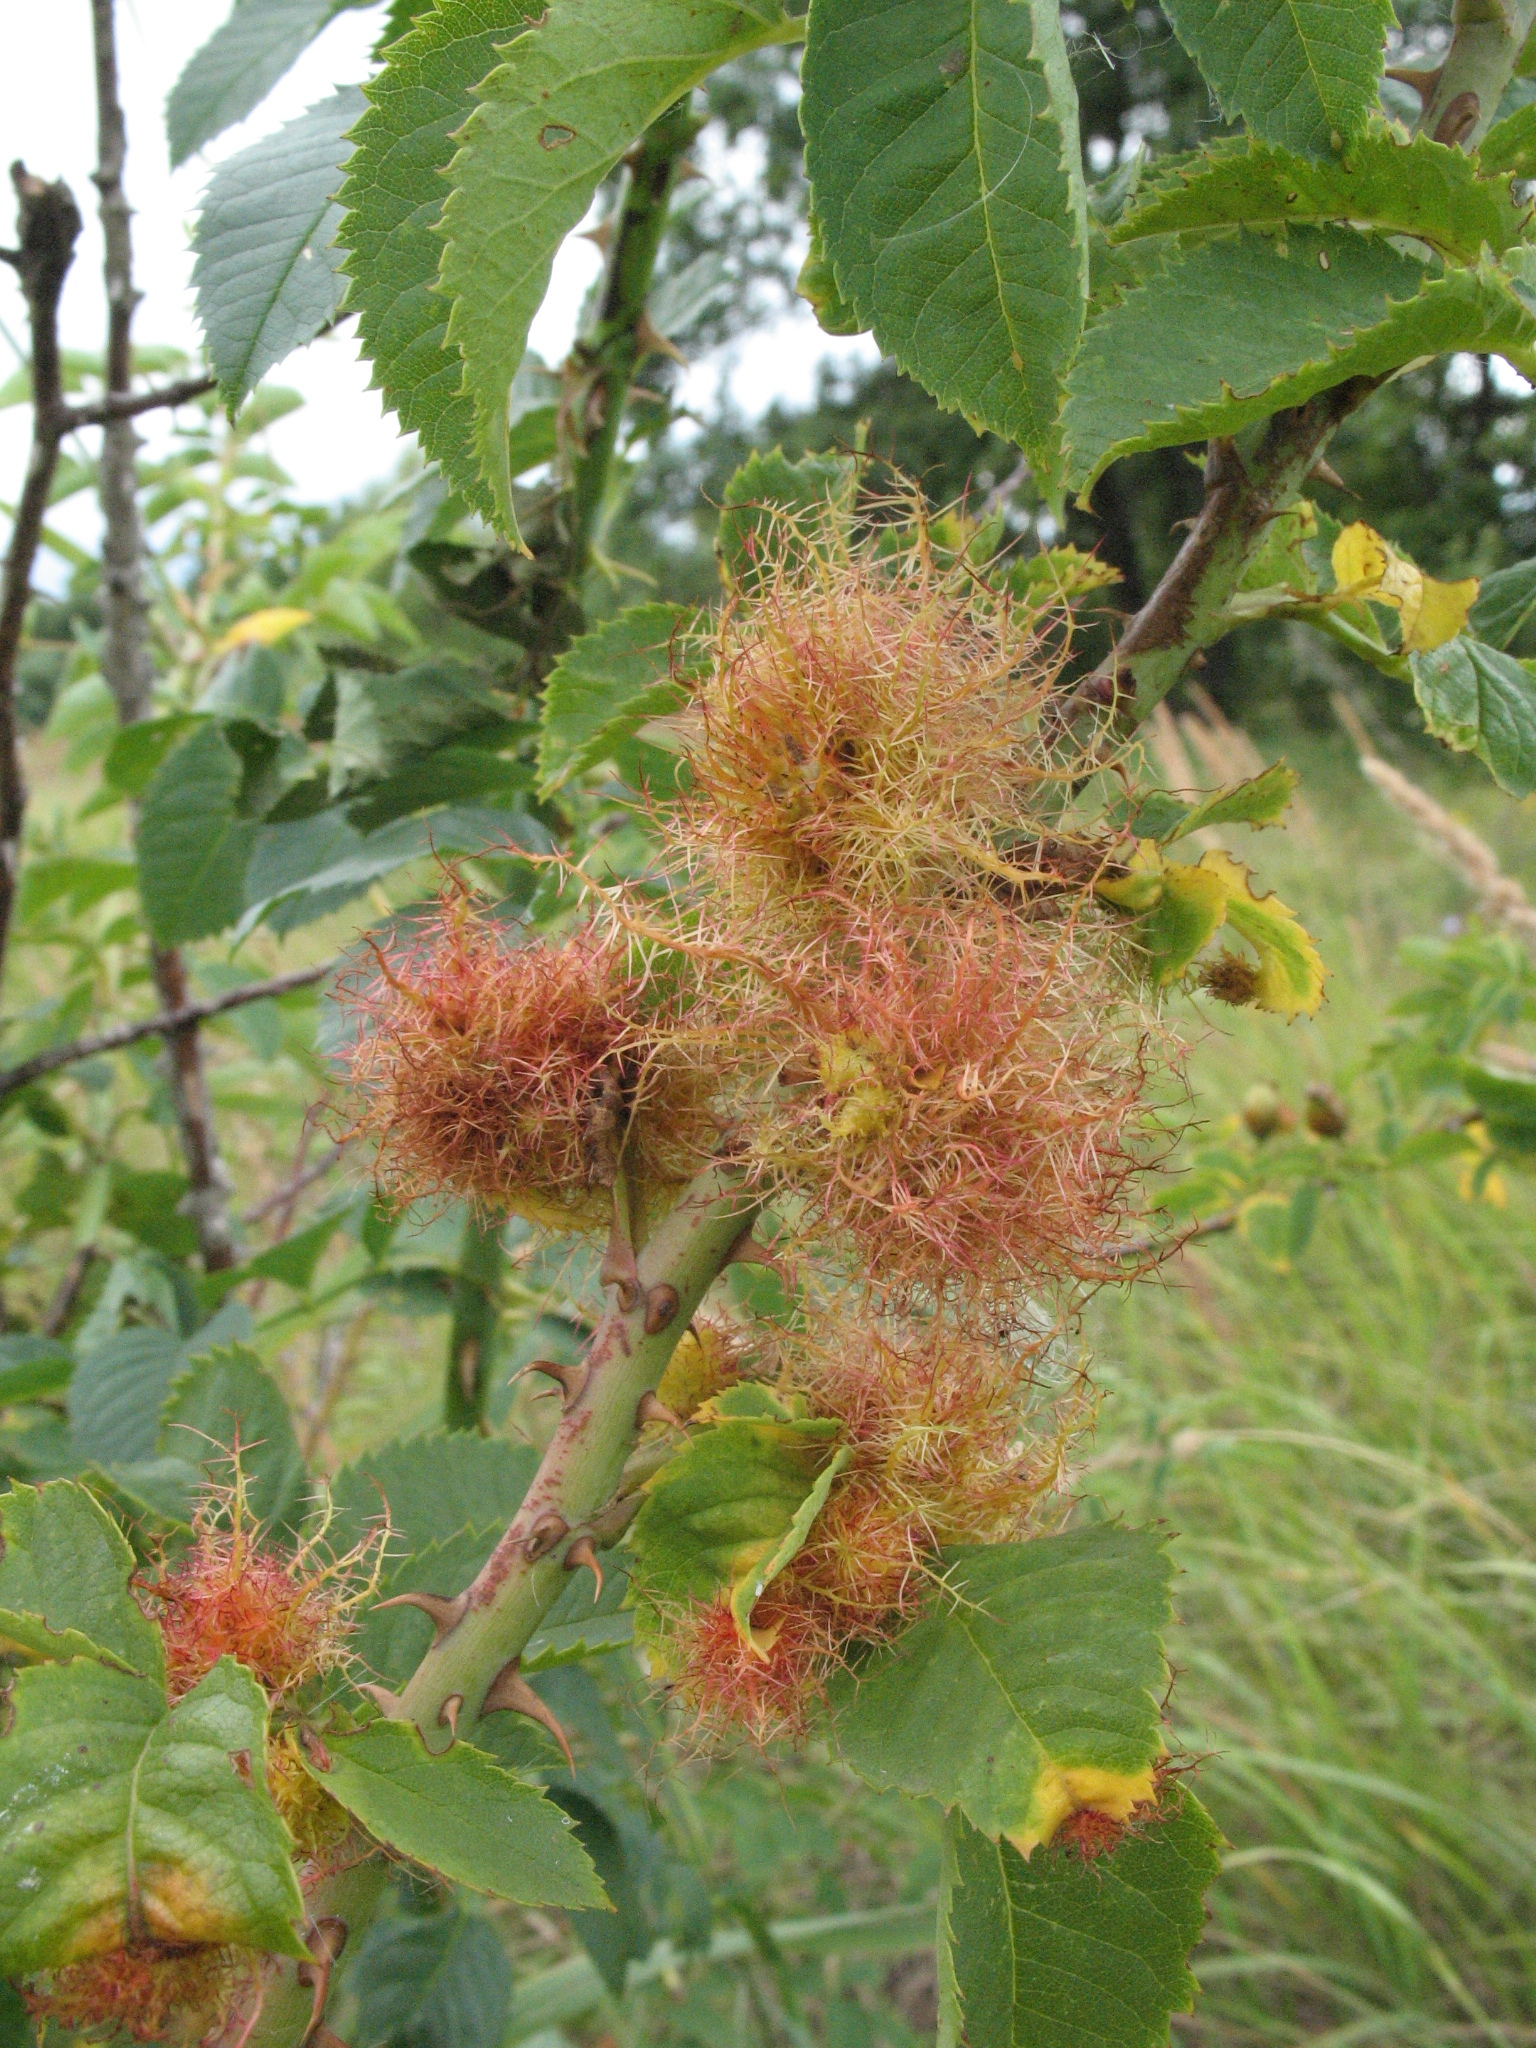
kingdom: Animalia
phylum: Arthropoda
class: Insecta
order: Hymenoptera
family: Cynipidae
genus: Diplolepis
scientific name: Diplolepis rosae
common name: Bedeguar gall
